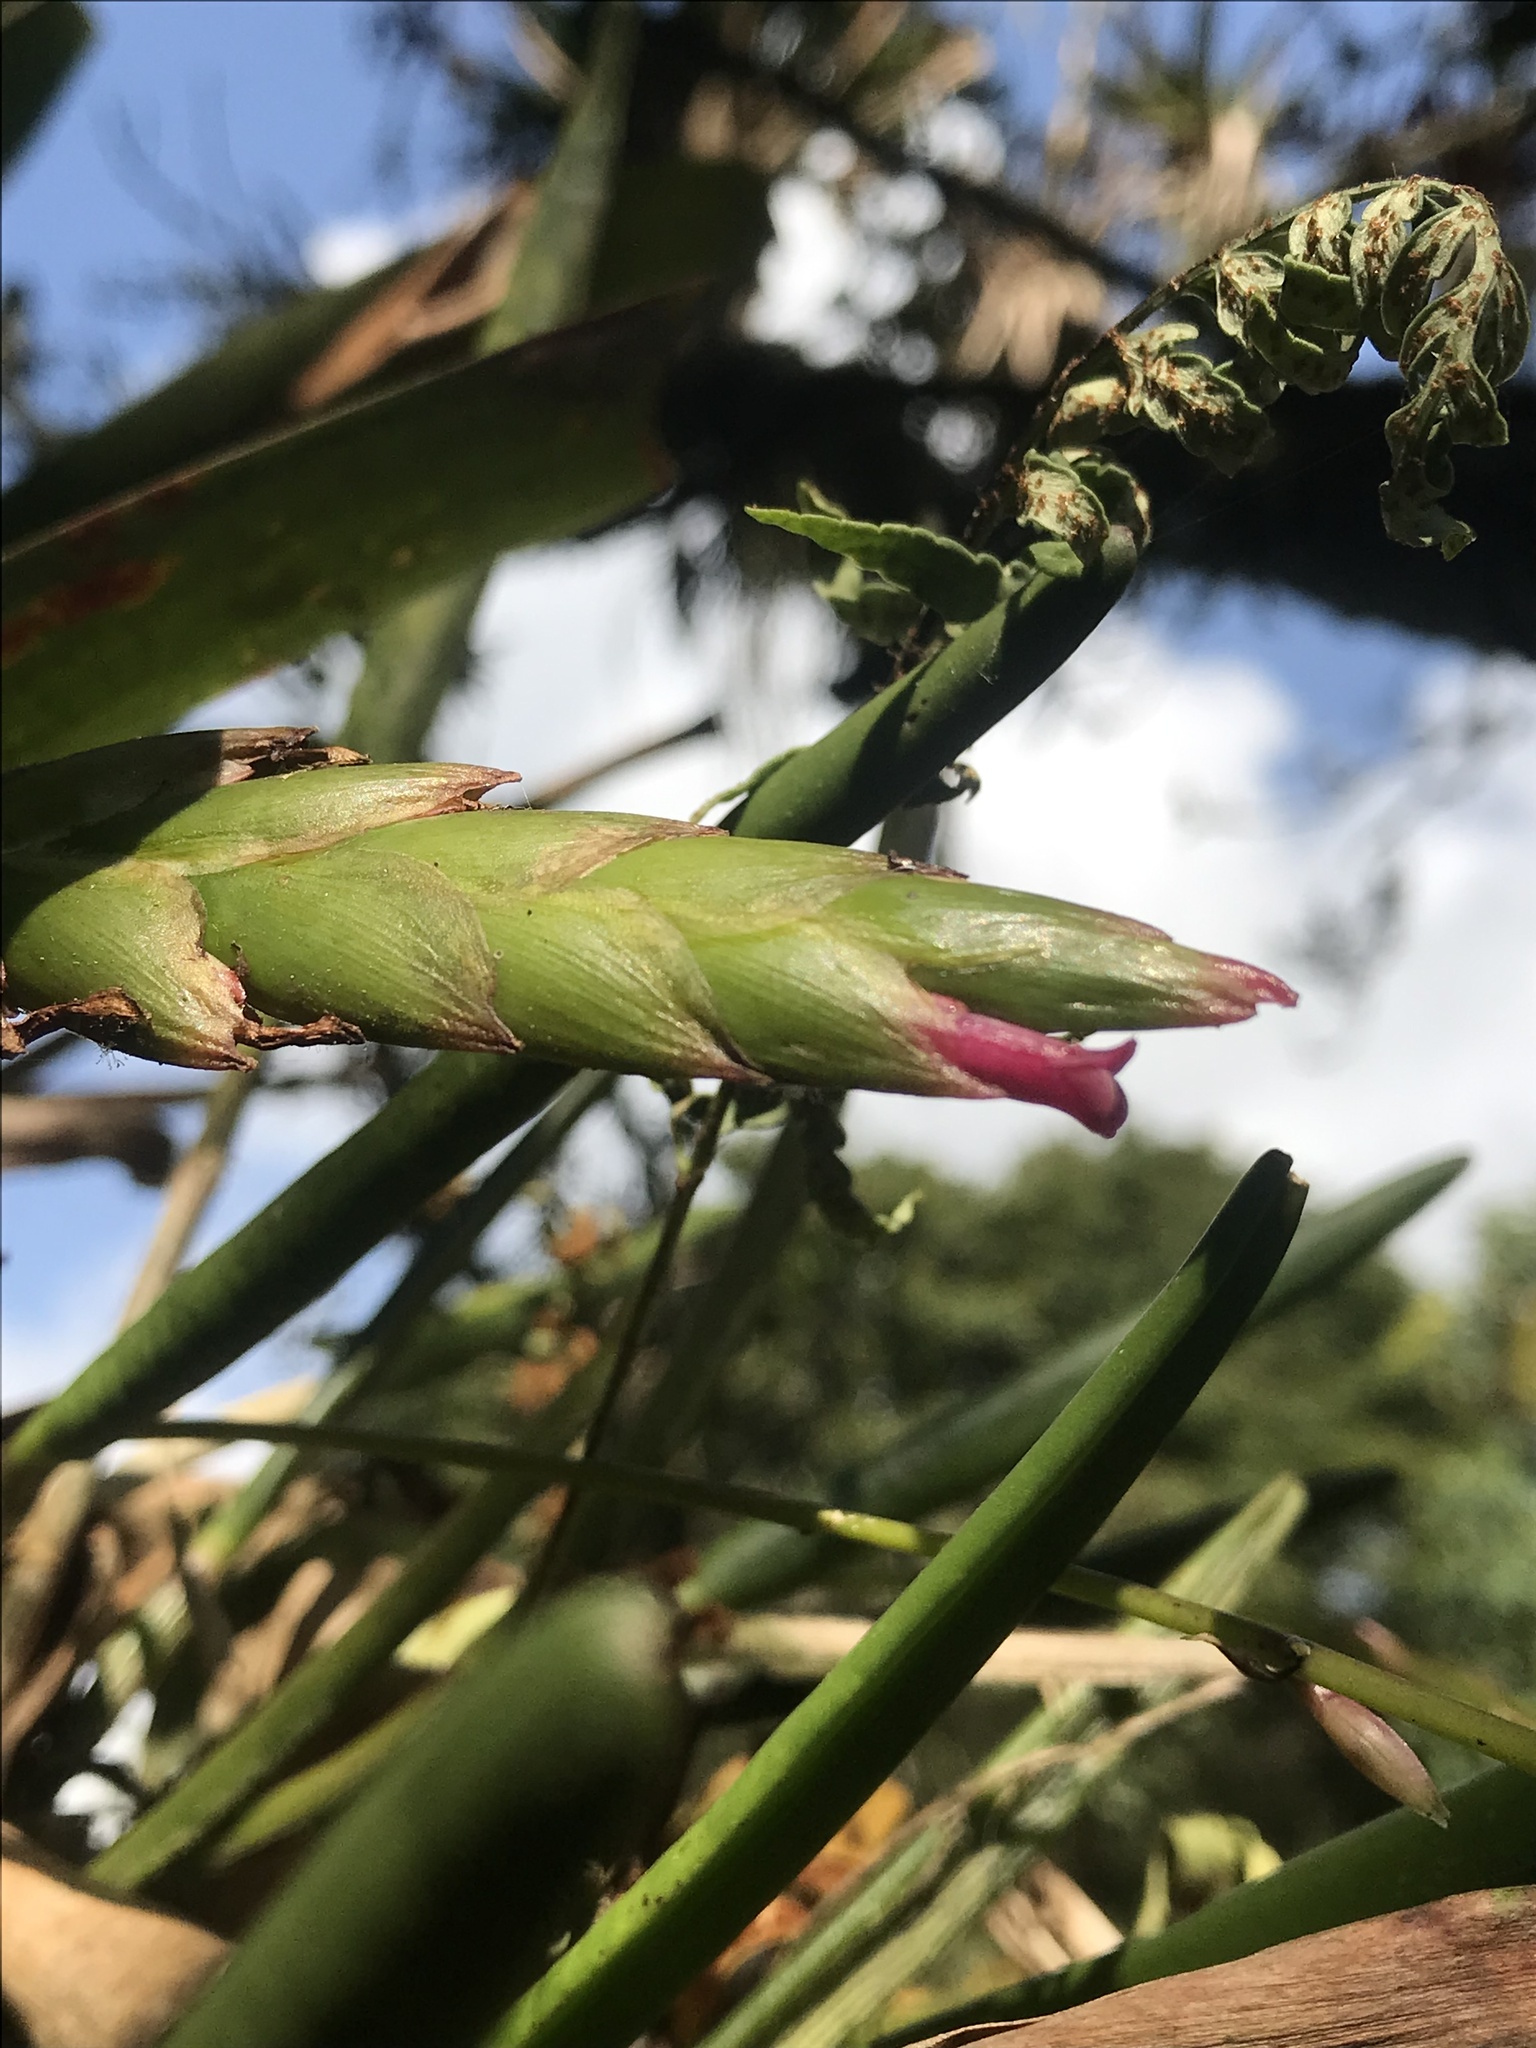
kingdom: Plantae
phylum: Tracheophyta
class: Liliopsida
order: Poales
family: Bromeliaceae
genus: Tillandsia
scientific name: Tillandsia complanata
